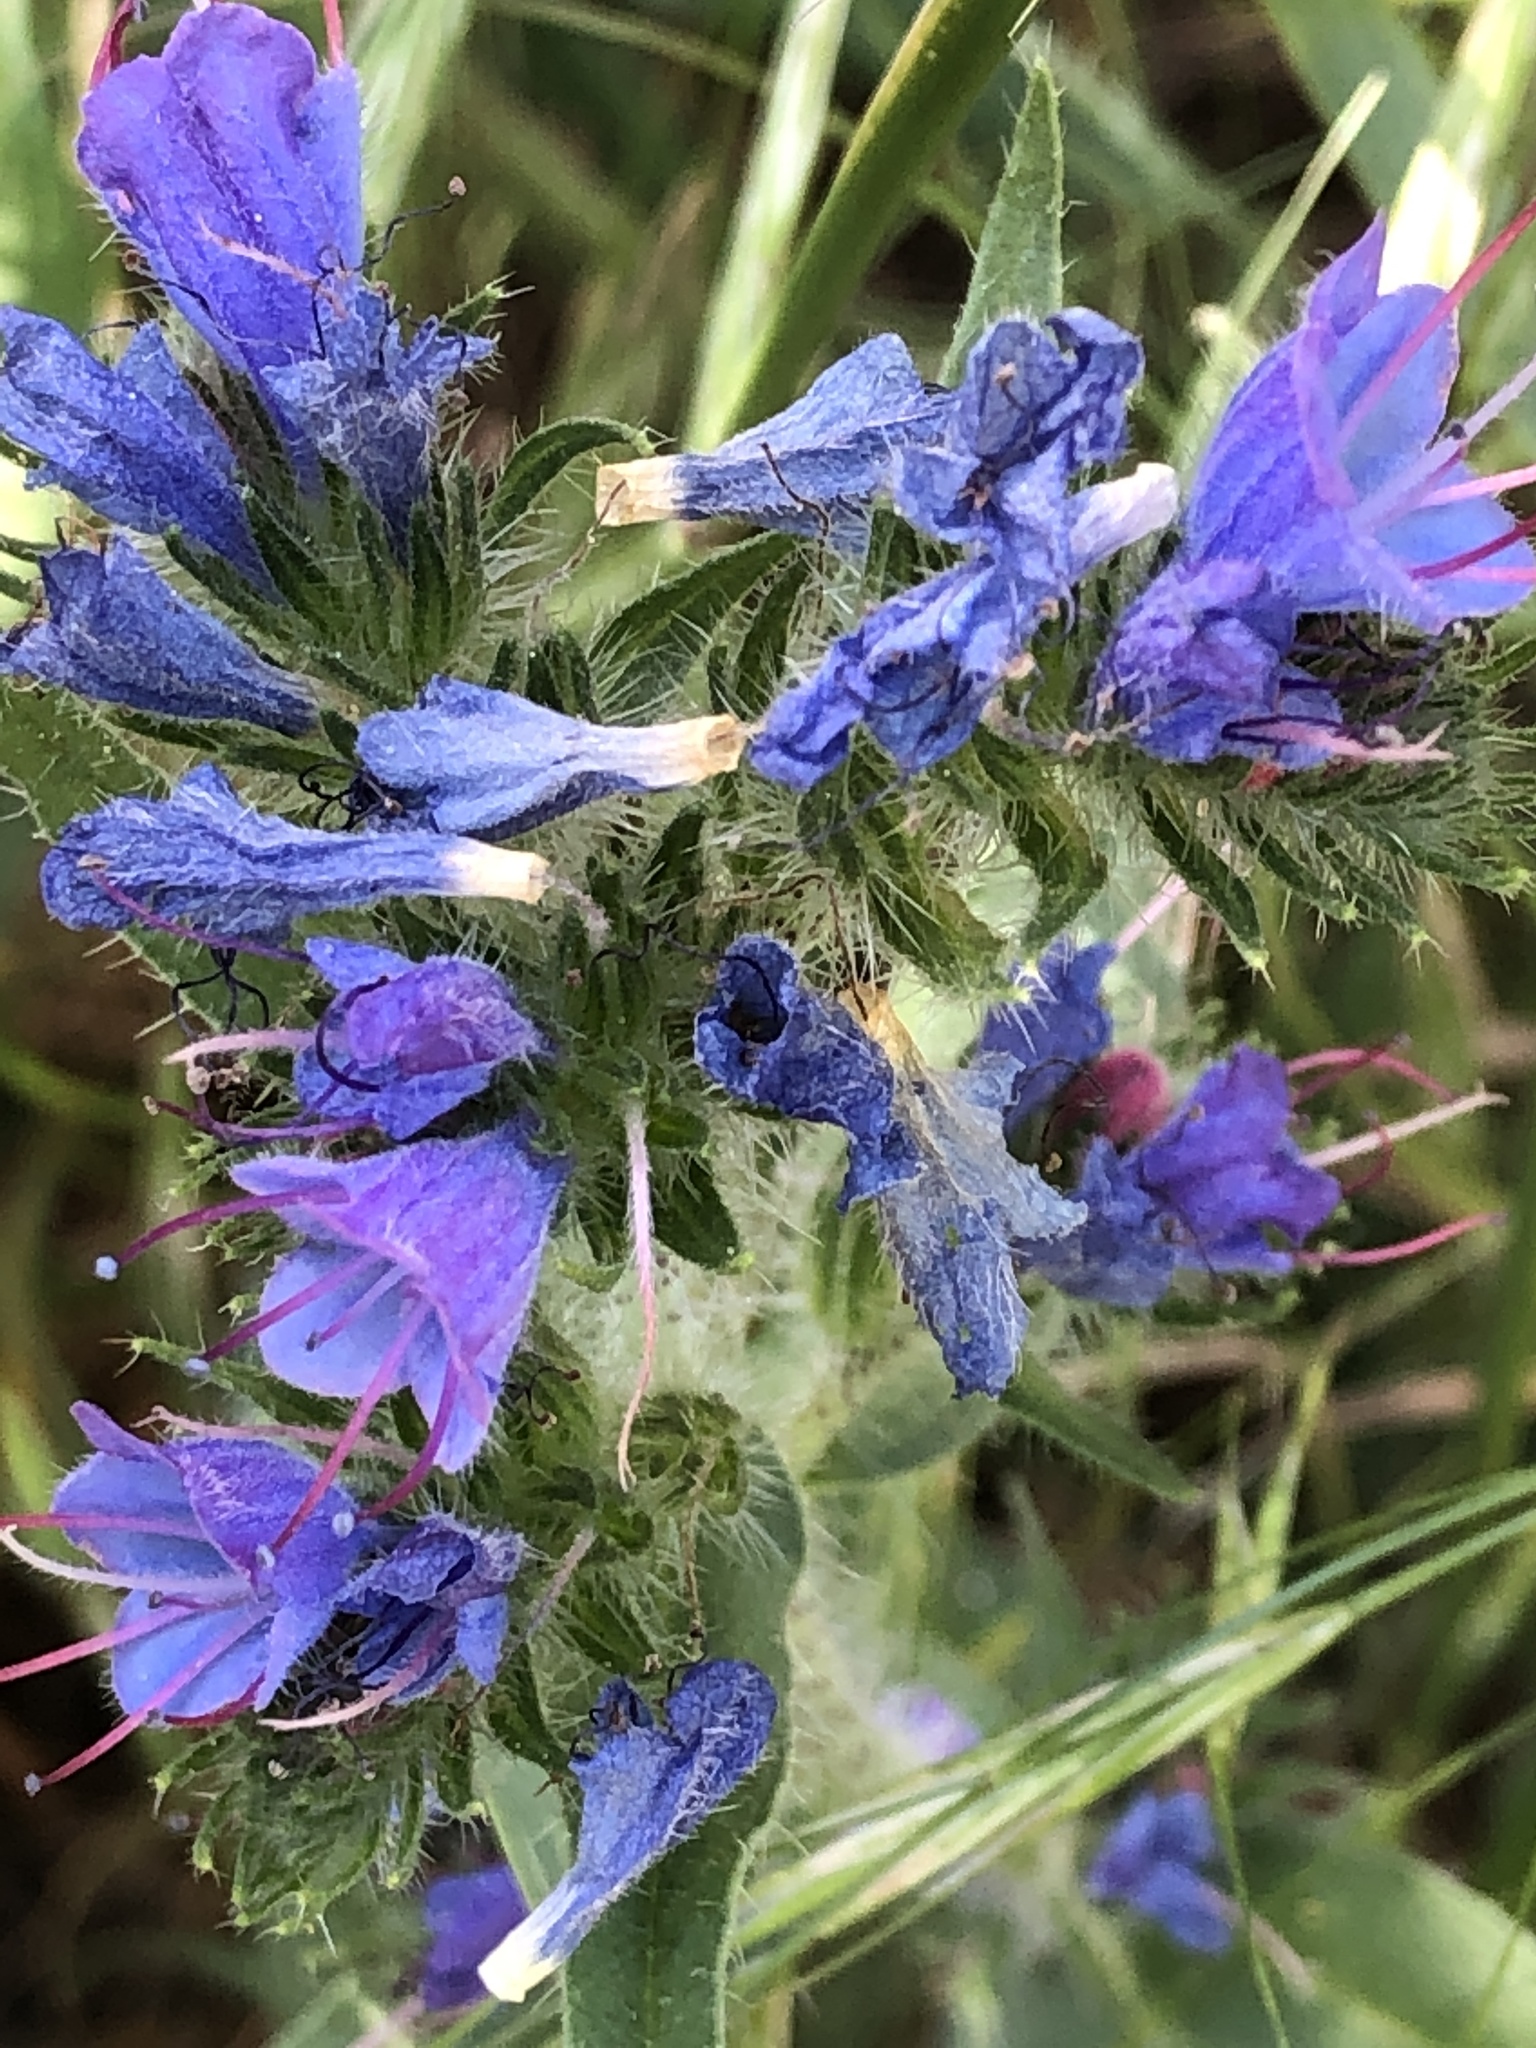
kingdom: Plantae
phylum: Tracheophyta
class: Magnoliopsida
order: Boraginales
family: Boraginaceae
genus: Echium
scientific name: Echium vulgare
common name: Common viper's bugloss
